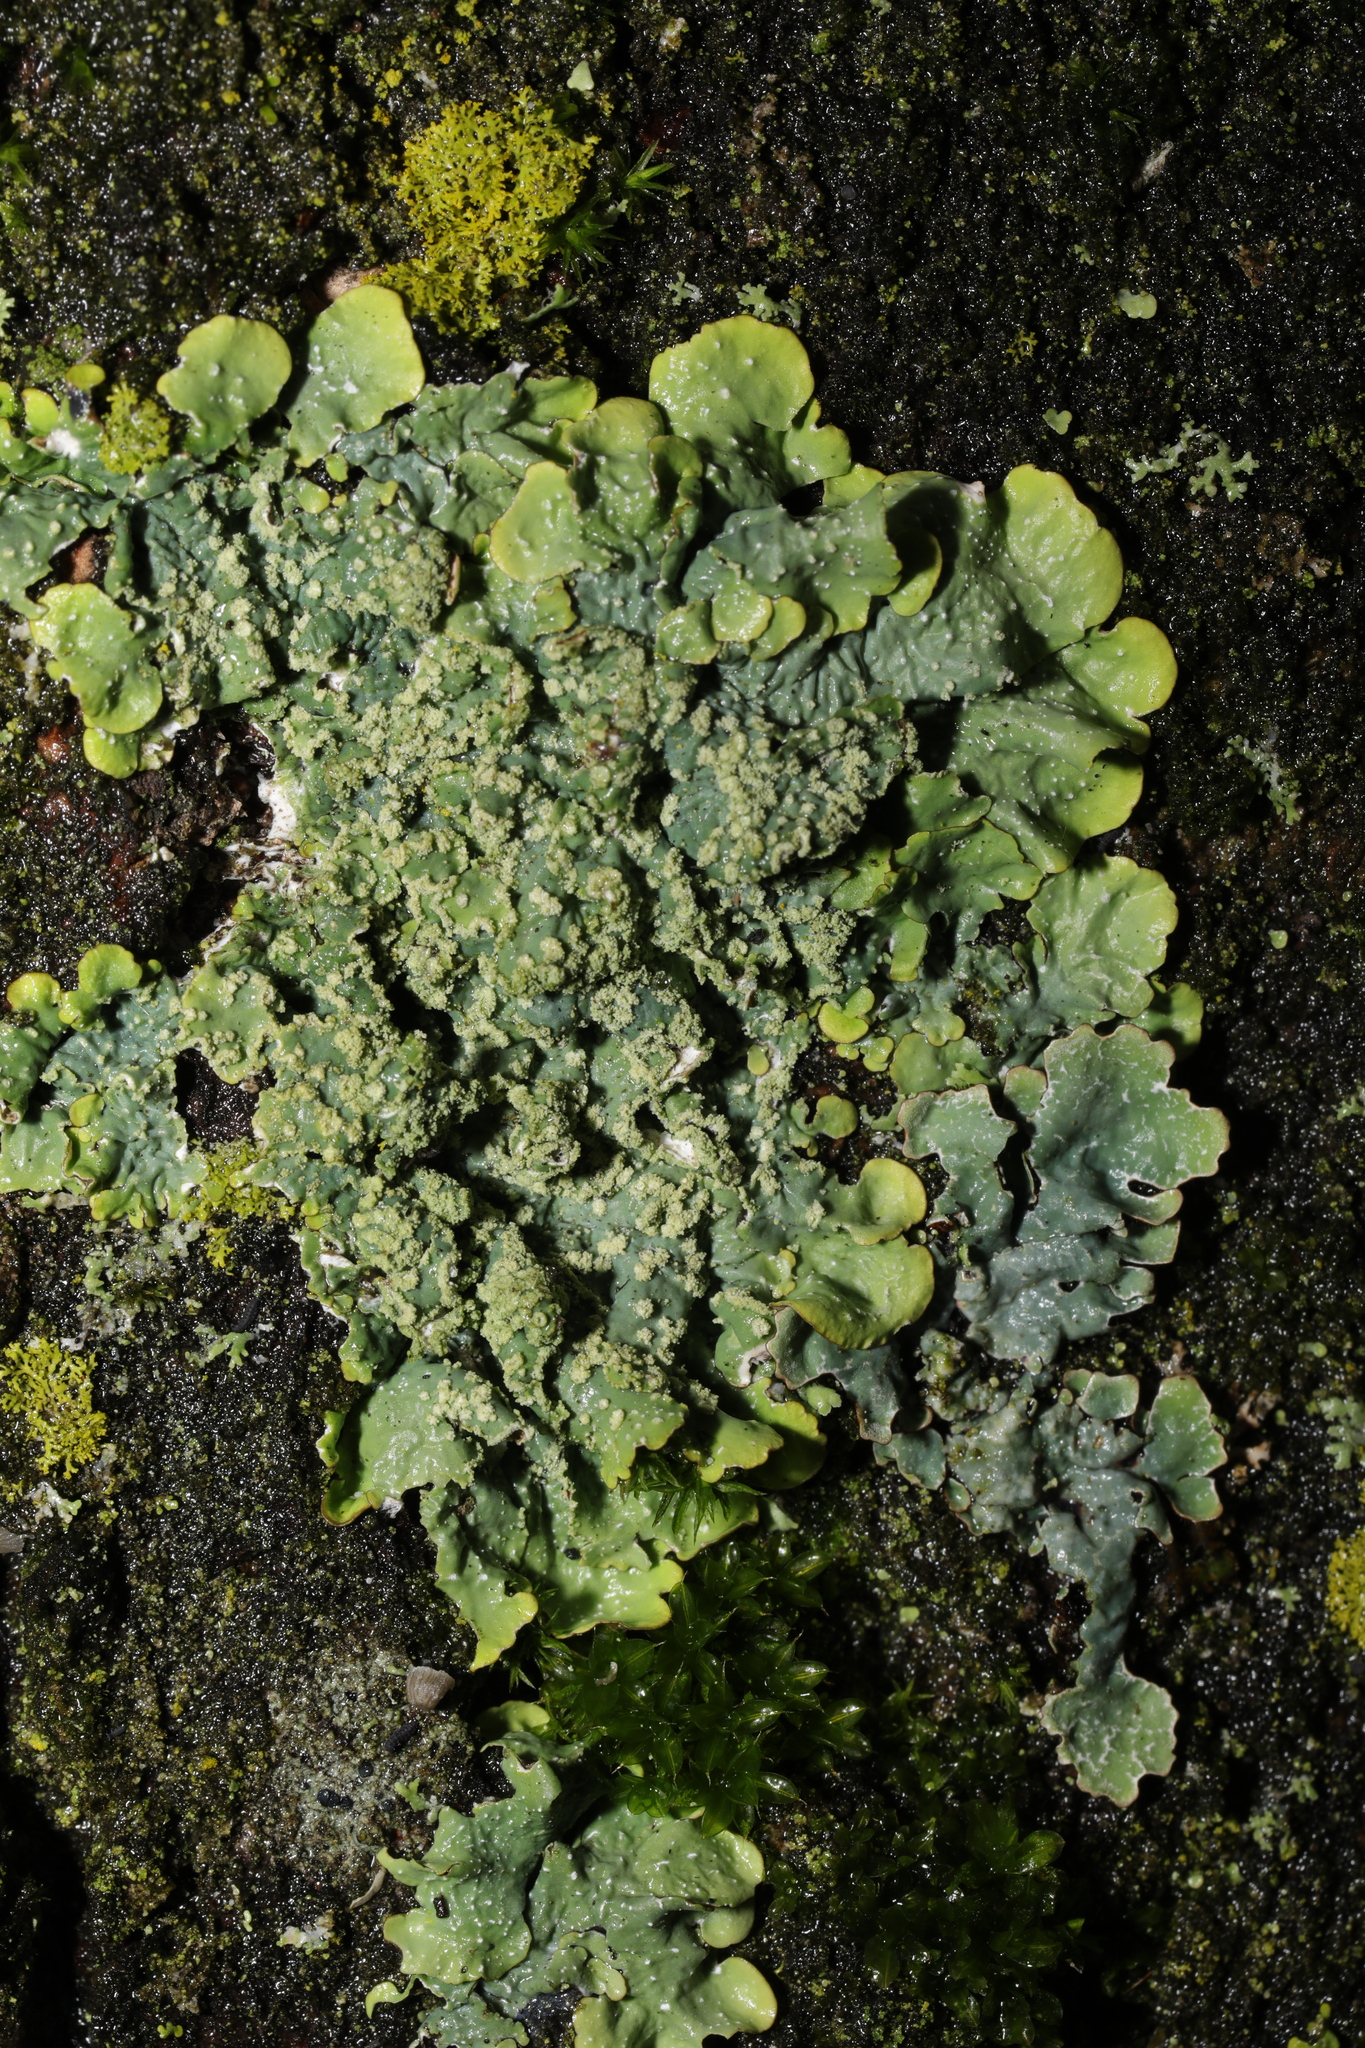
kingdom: Fungi
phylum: Ascomycota
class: Lecanoromycetes
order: Lecanorales
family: Parmeliaceae
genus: Punctelia
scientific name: Punctelia subrudecta
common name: Powdered speckled shield lichen
